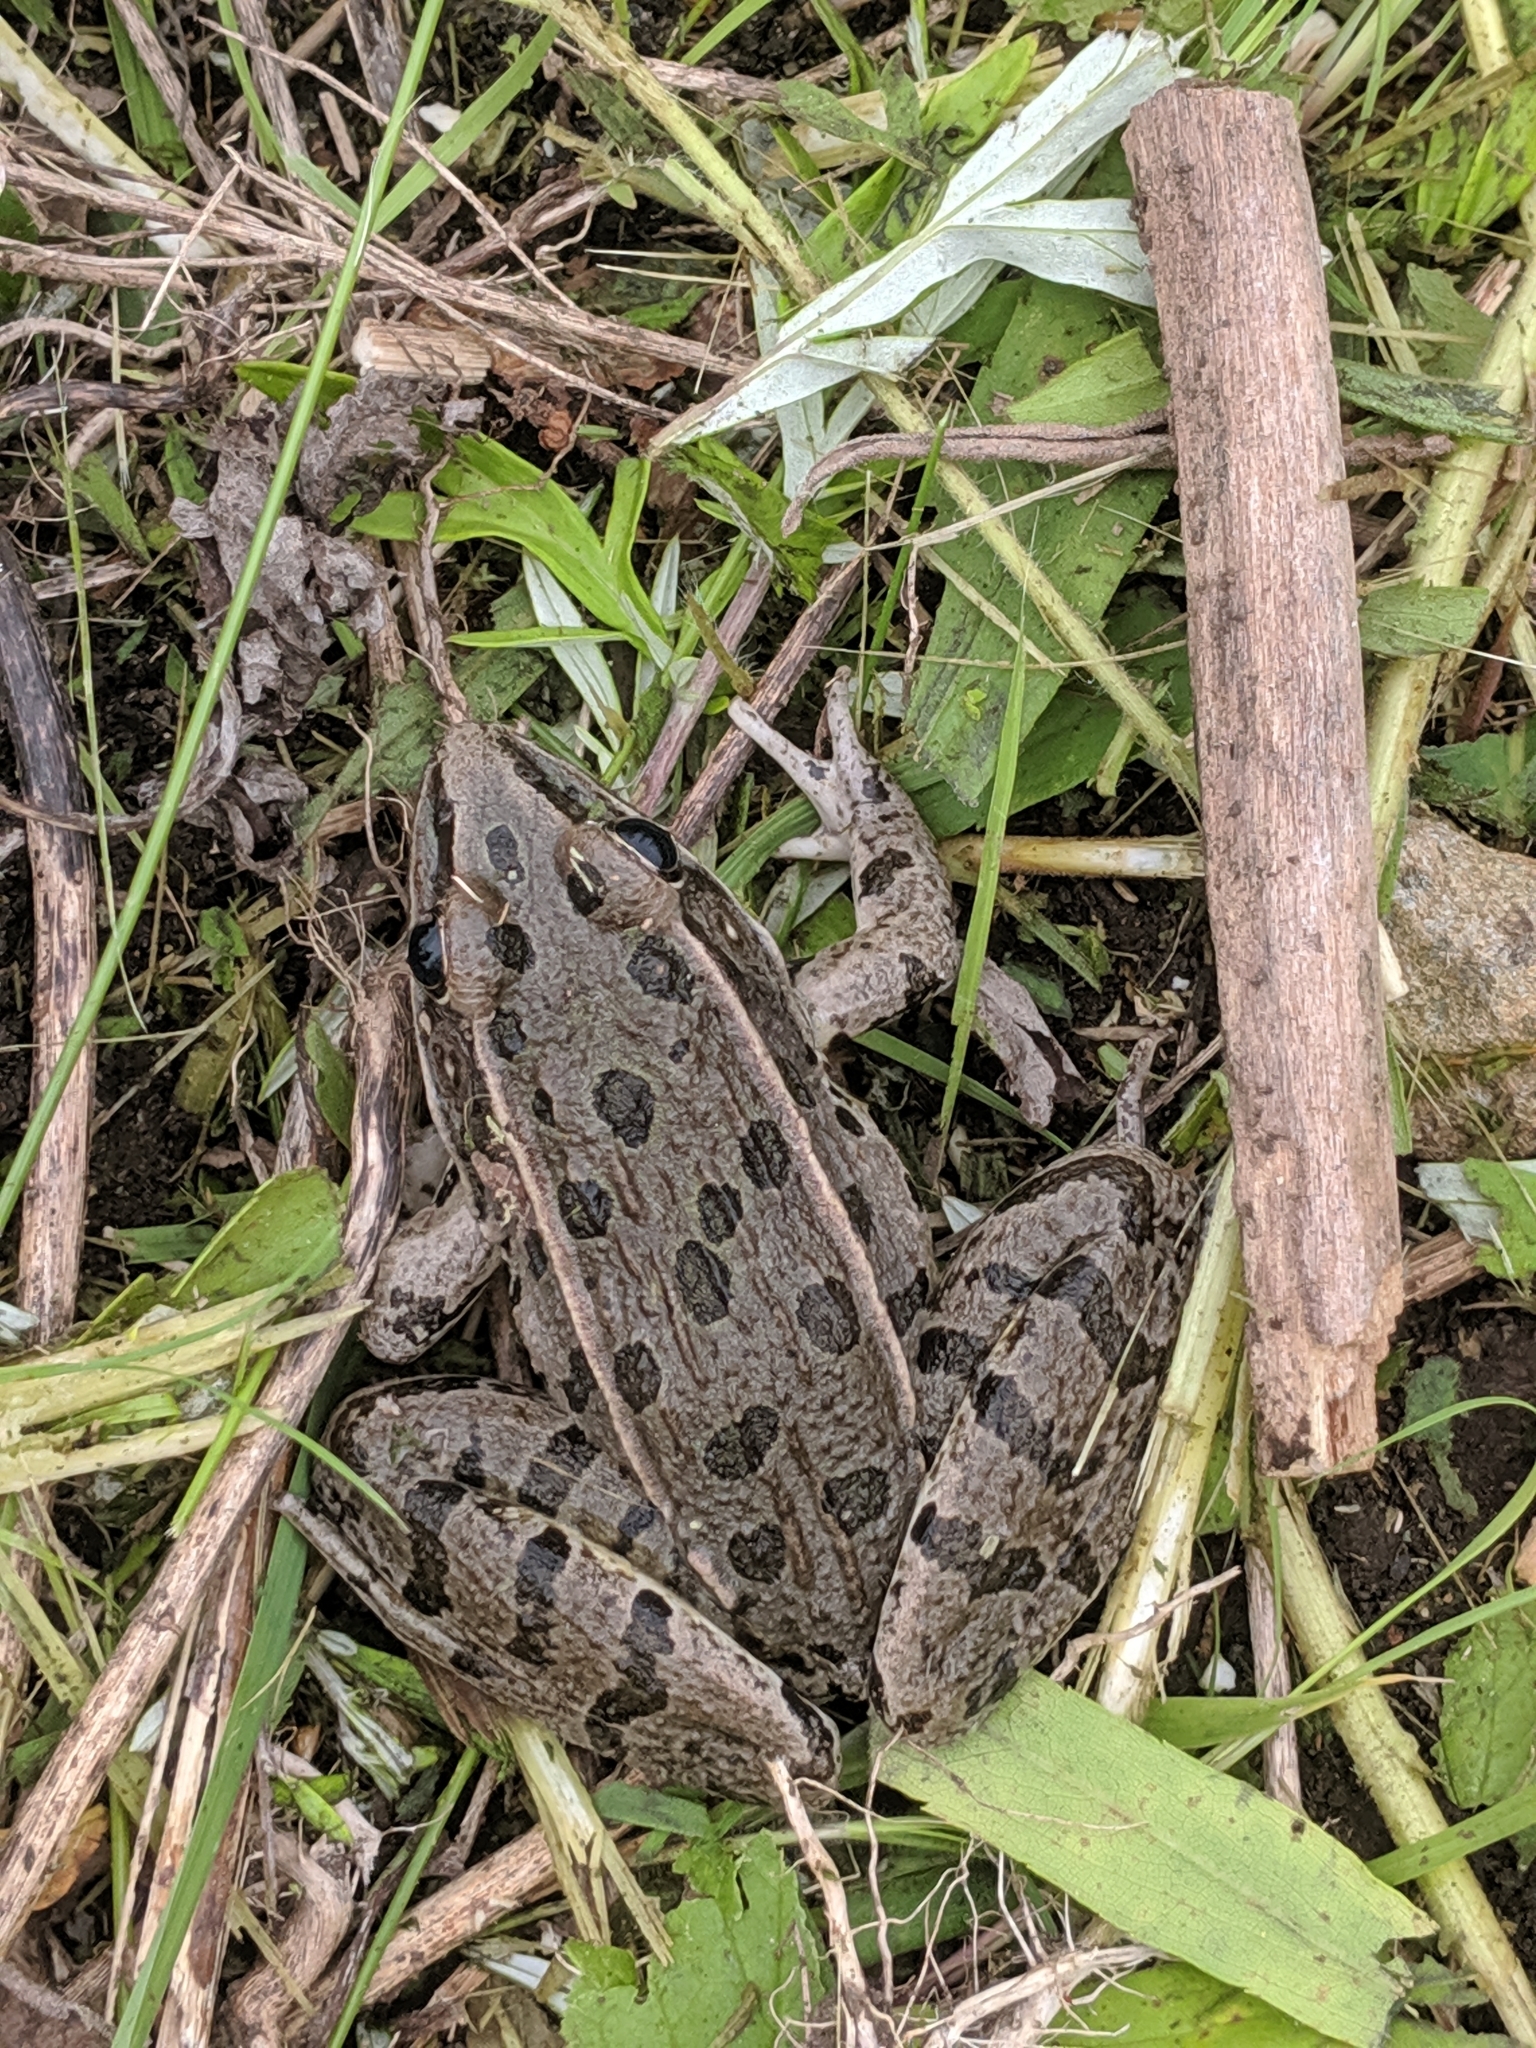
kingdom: Animalia
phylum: Chordata
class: Amphibia
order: Anura
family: Ranidae
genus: Lithobates
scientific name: Lithobates pipiens
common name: Northern leopard frog
